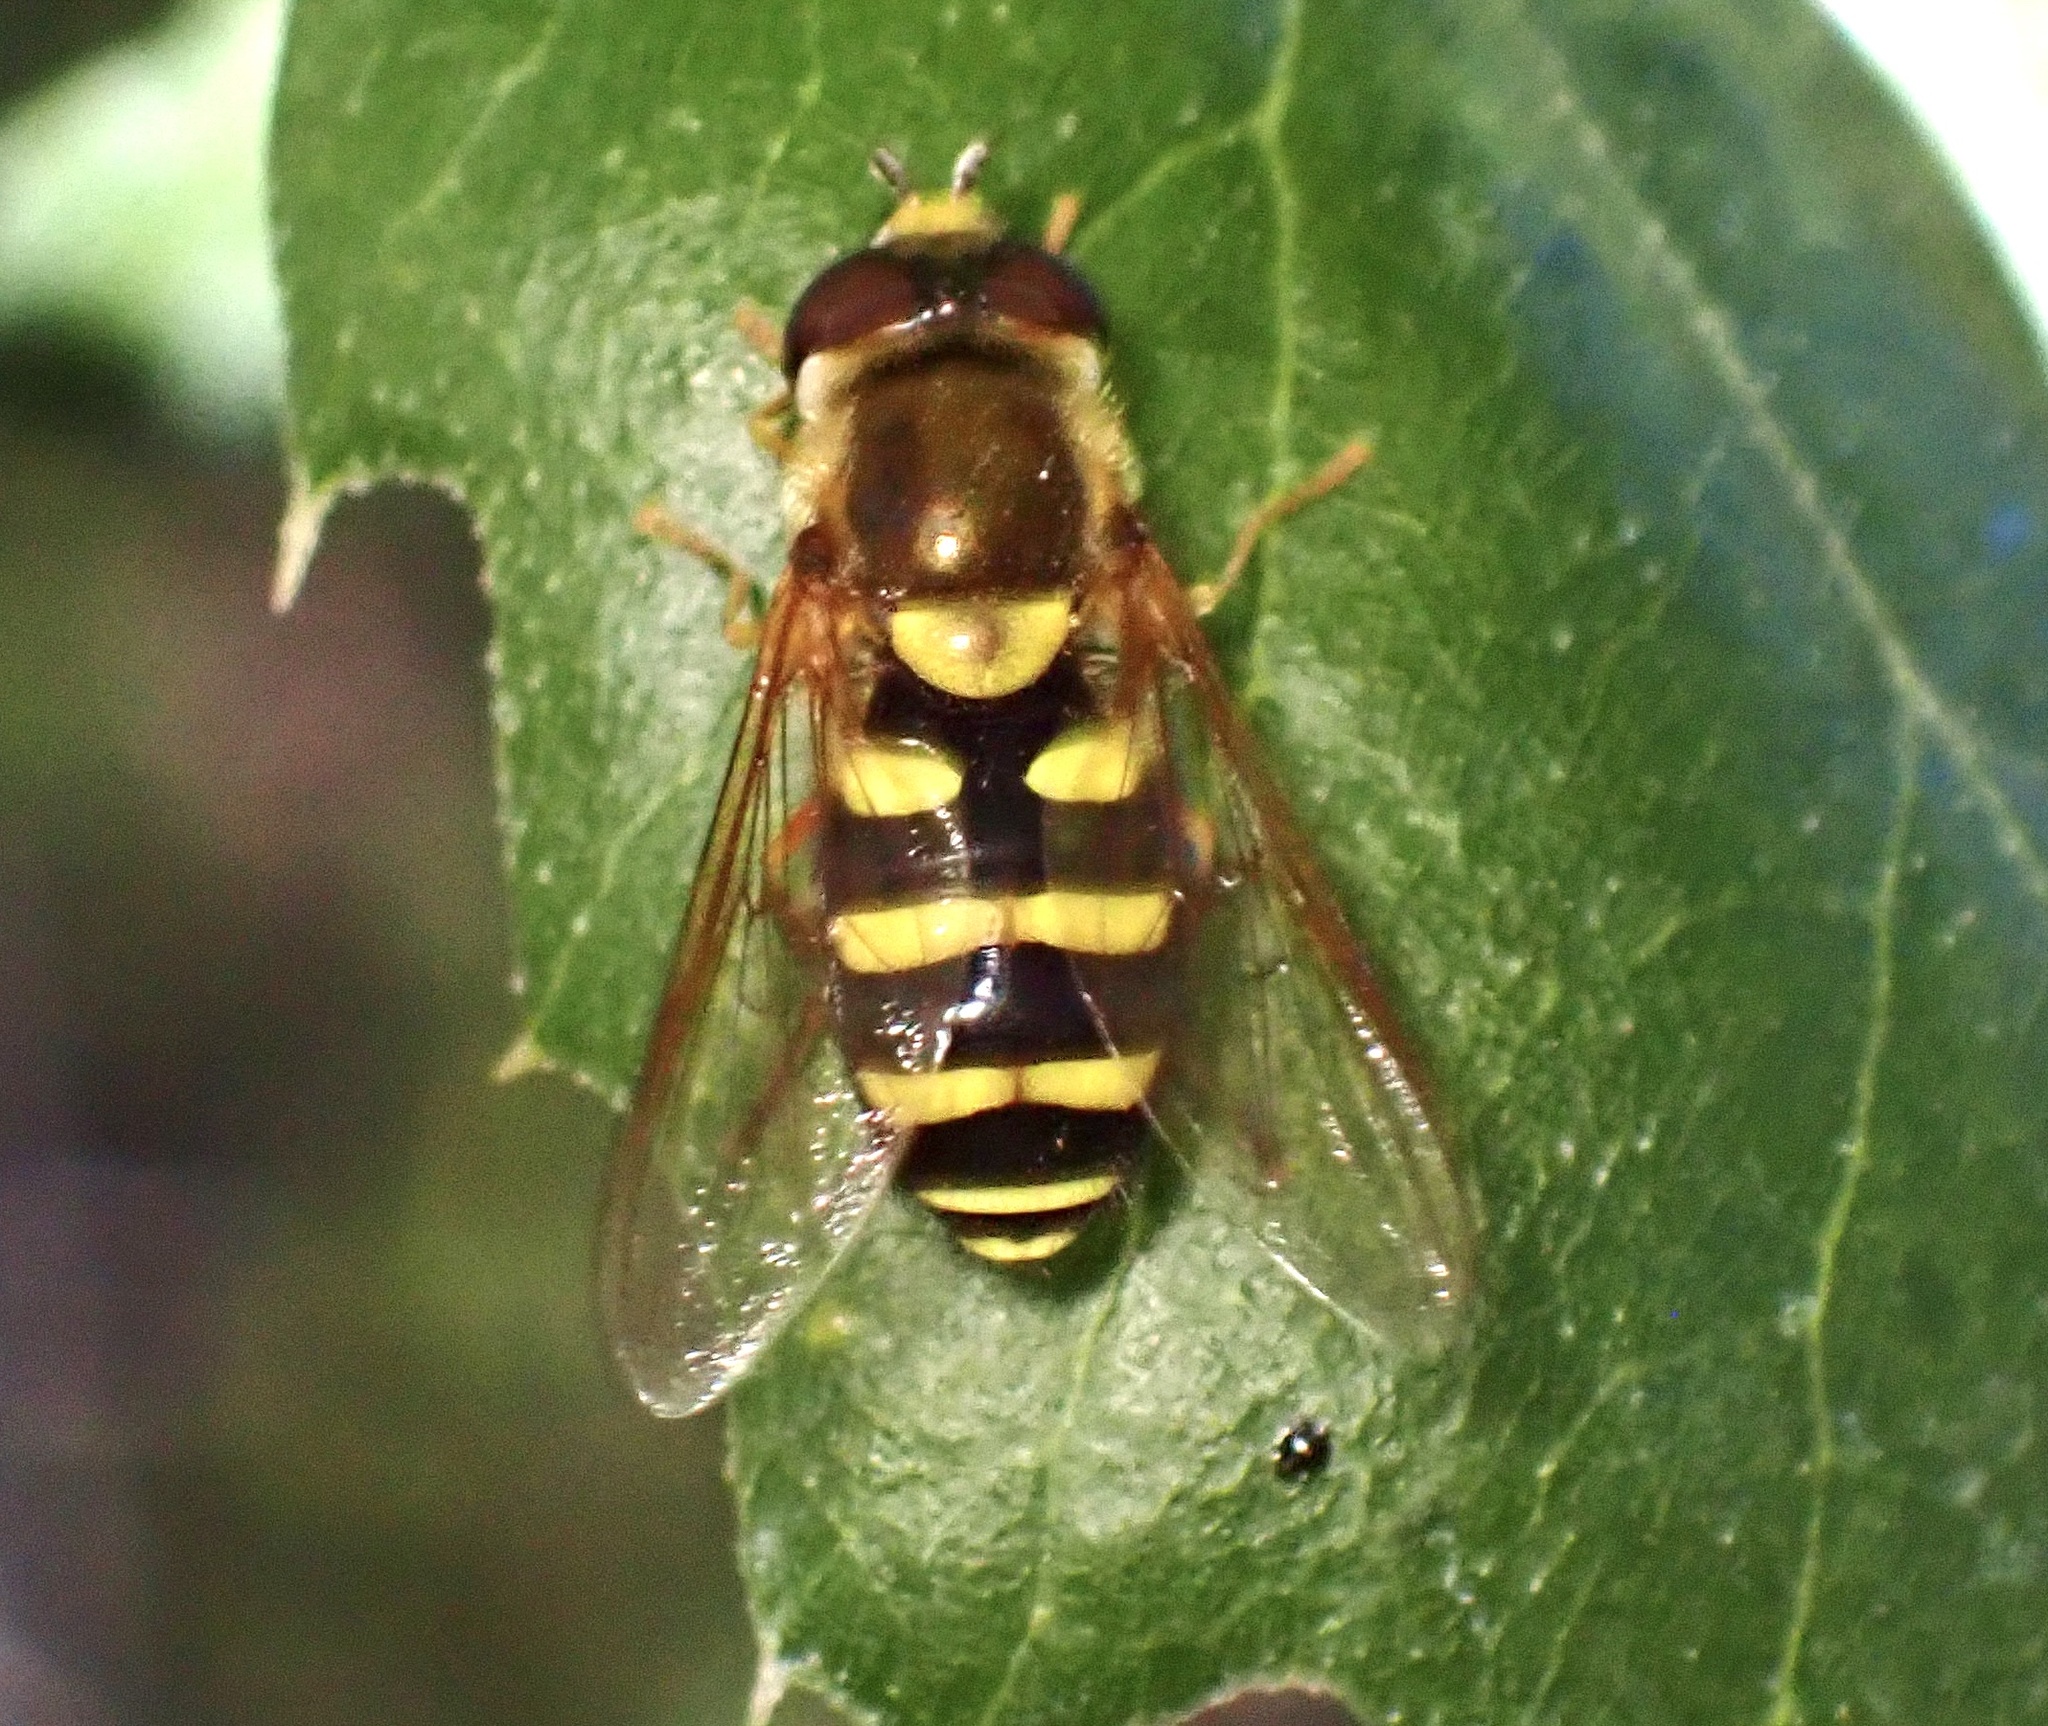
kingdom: Animalia
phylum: Arthropoda
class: Insecta
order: Diptera
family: Syrphidae
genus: Syrphus
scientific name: Syrphus opinator
